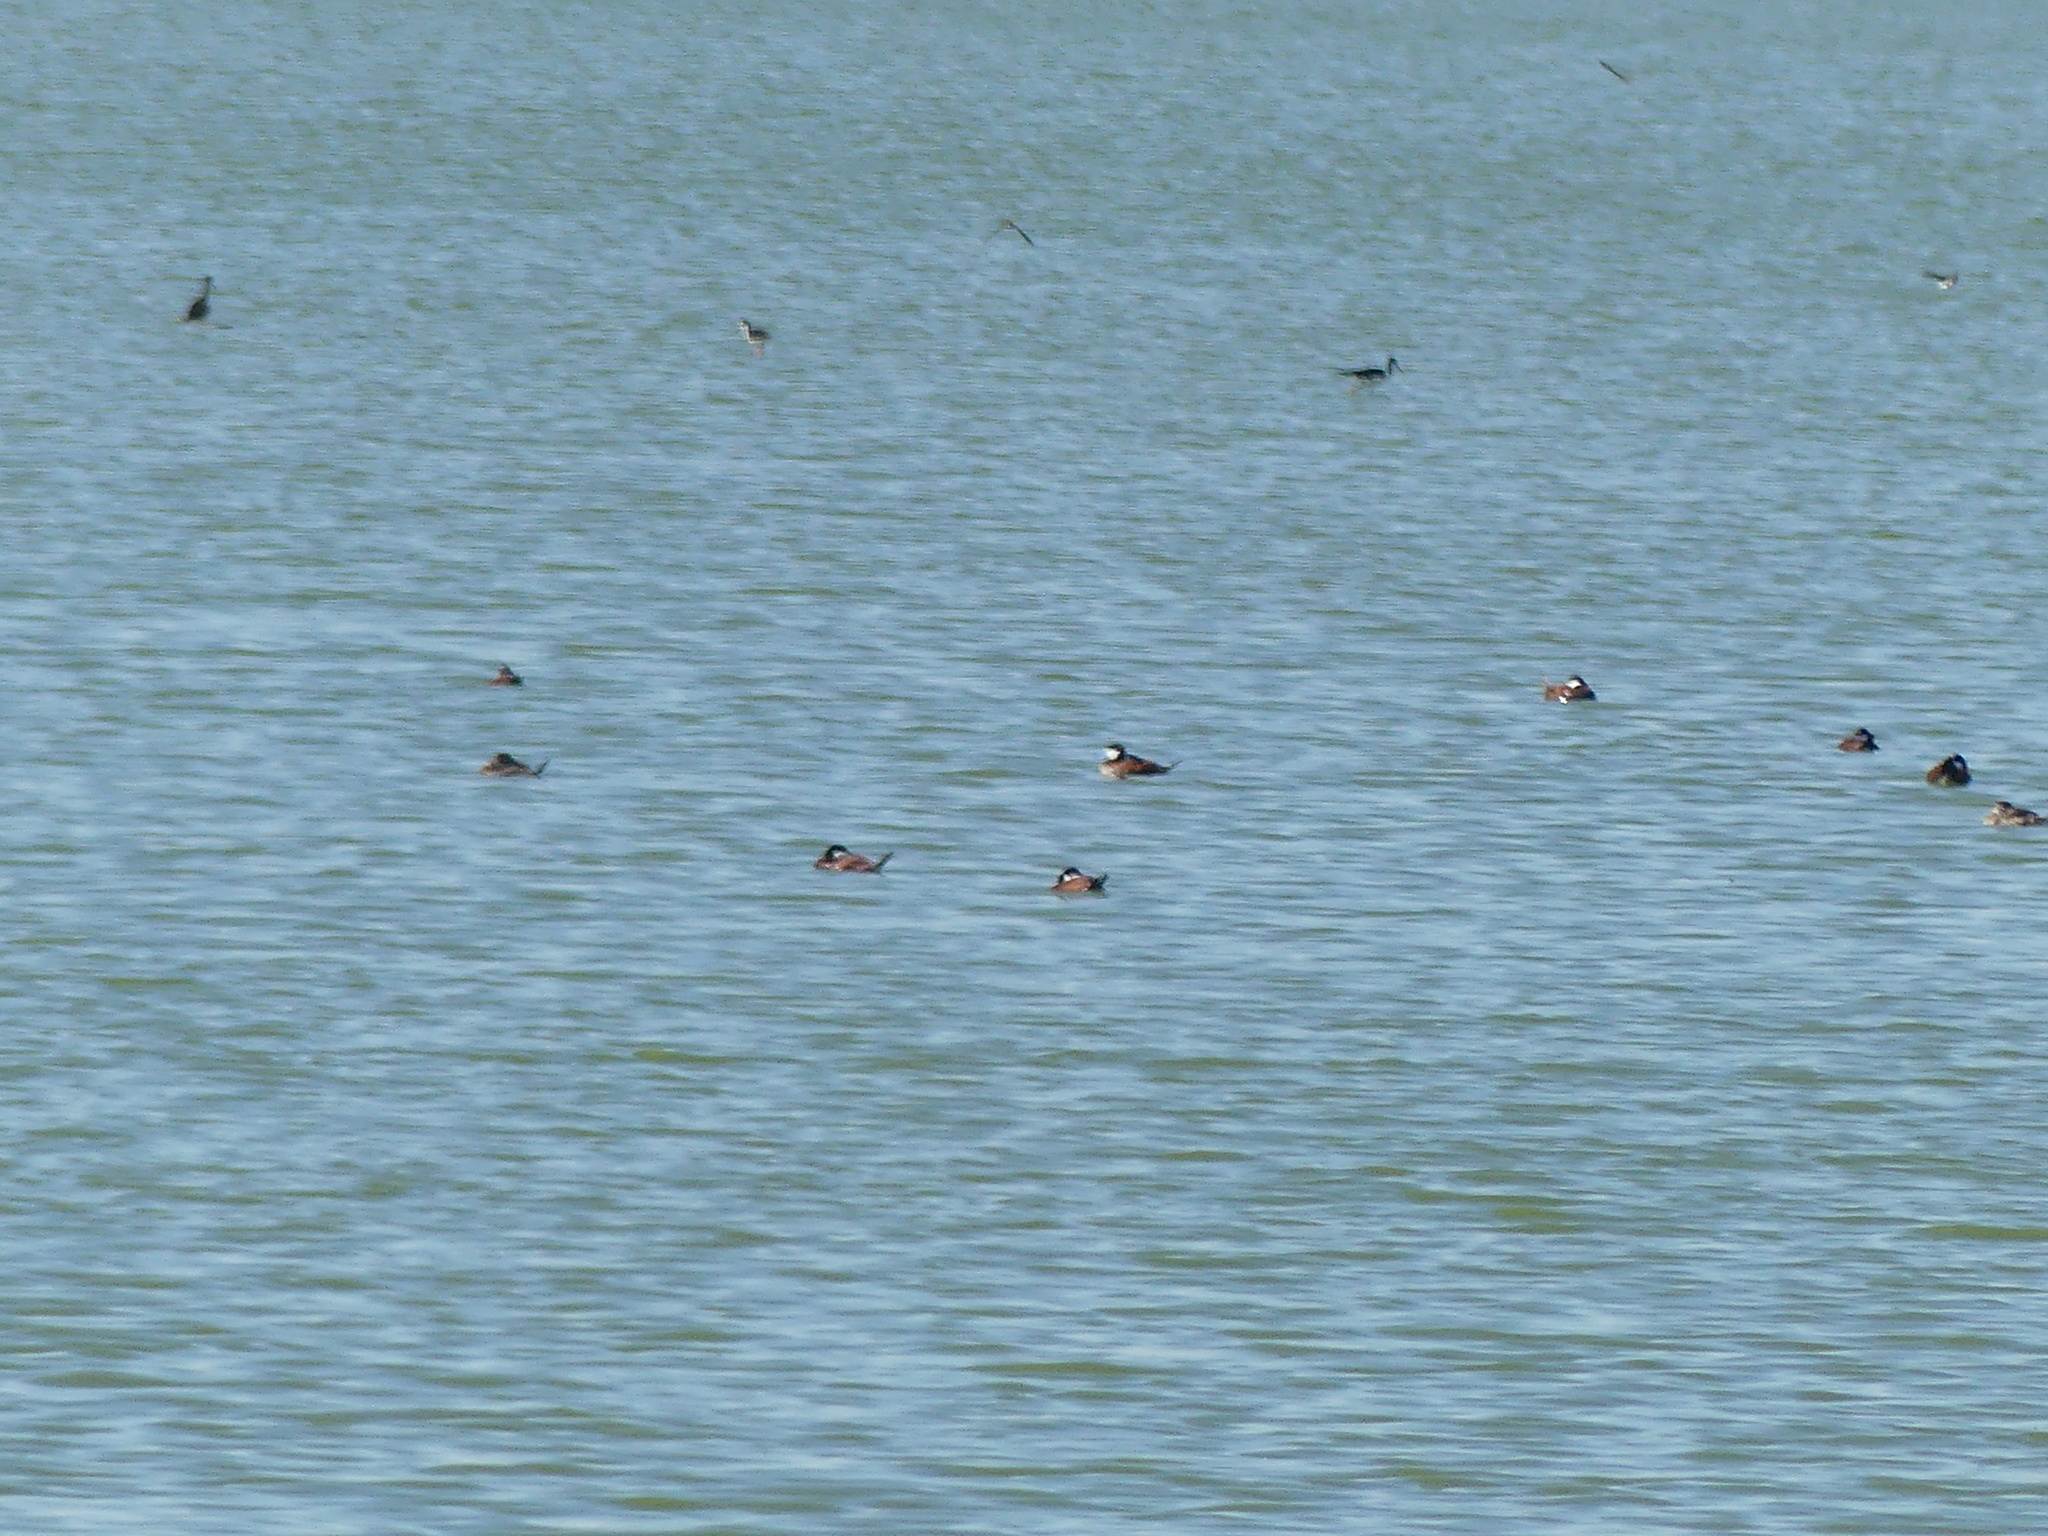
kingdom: Animalia
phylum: Chordata
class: Aves
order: Anseriformes
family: Anatidae
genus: Oxyura
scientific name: Oxyura jamaicensis
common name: Ruddy duck
